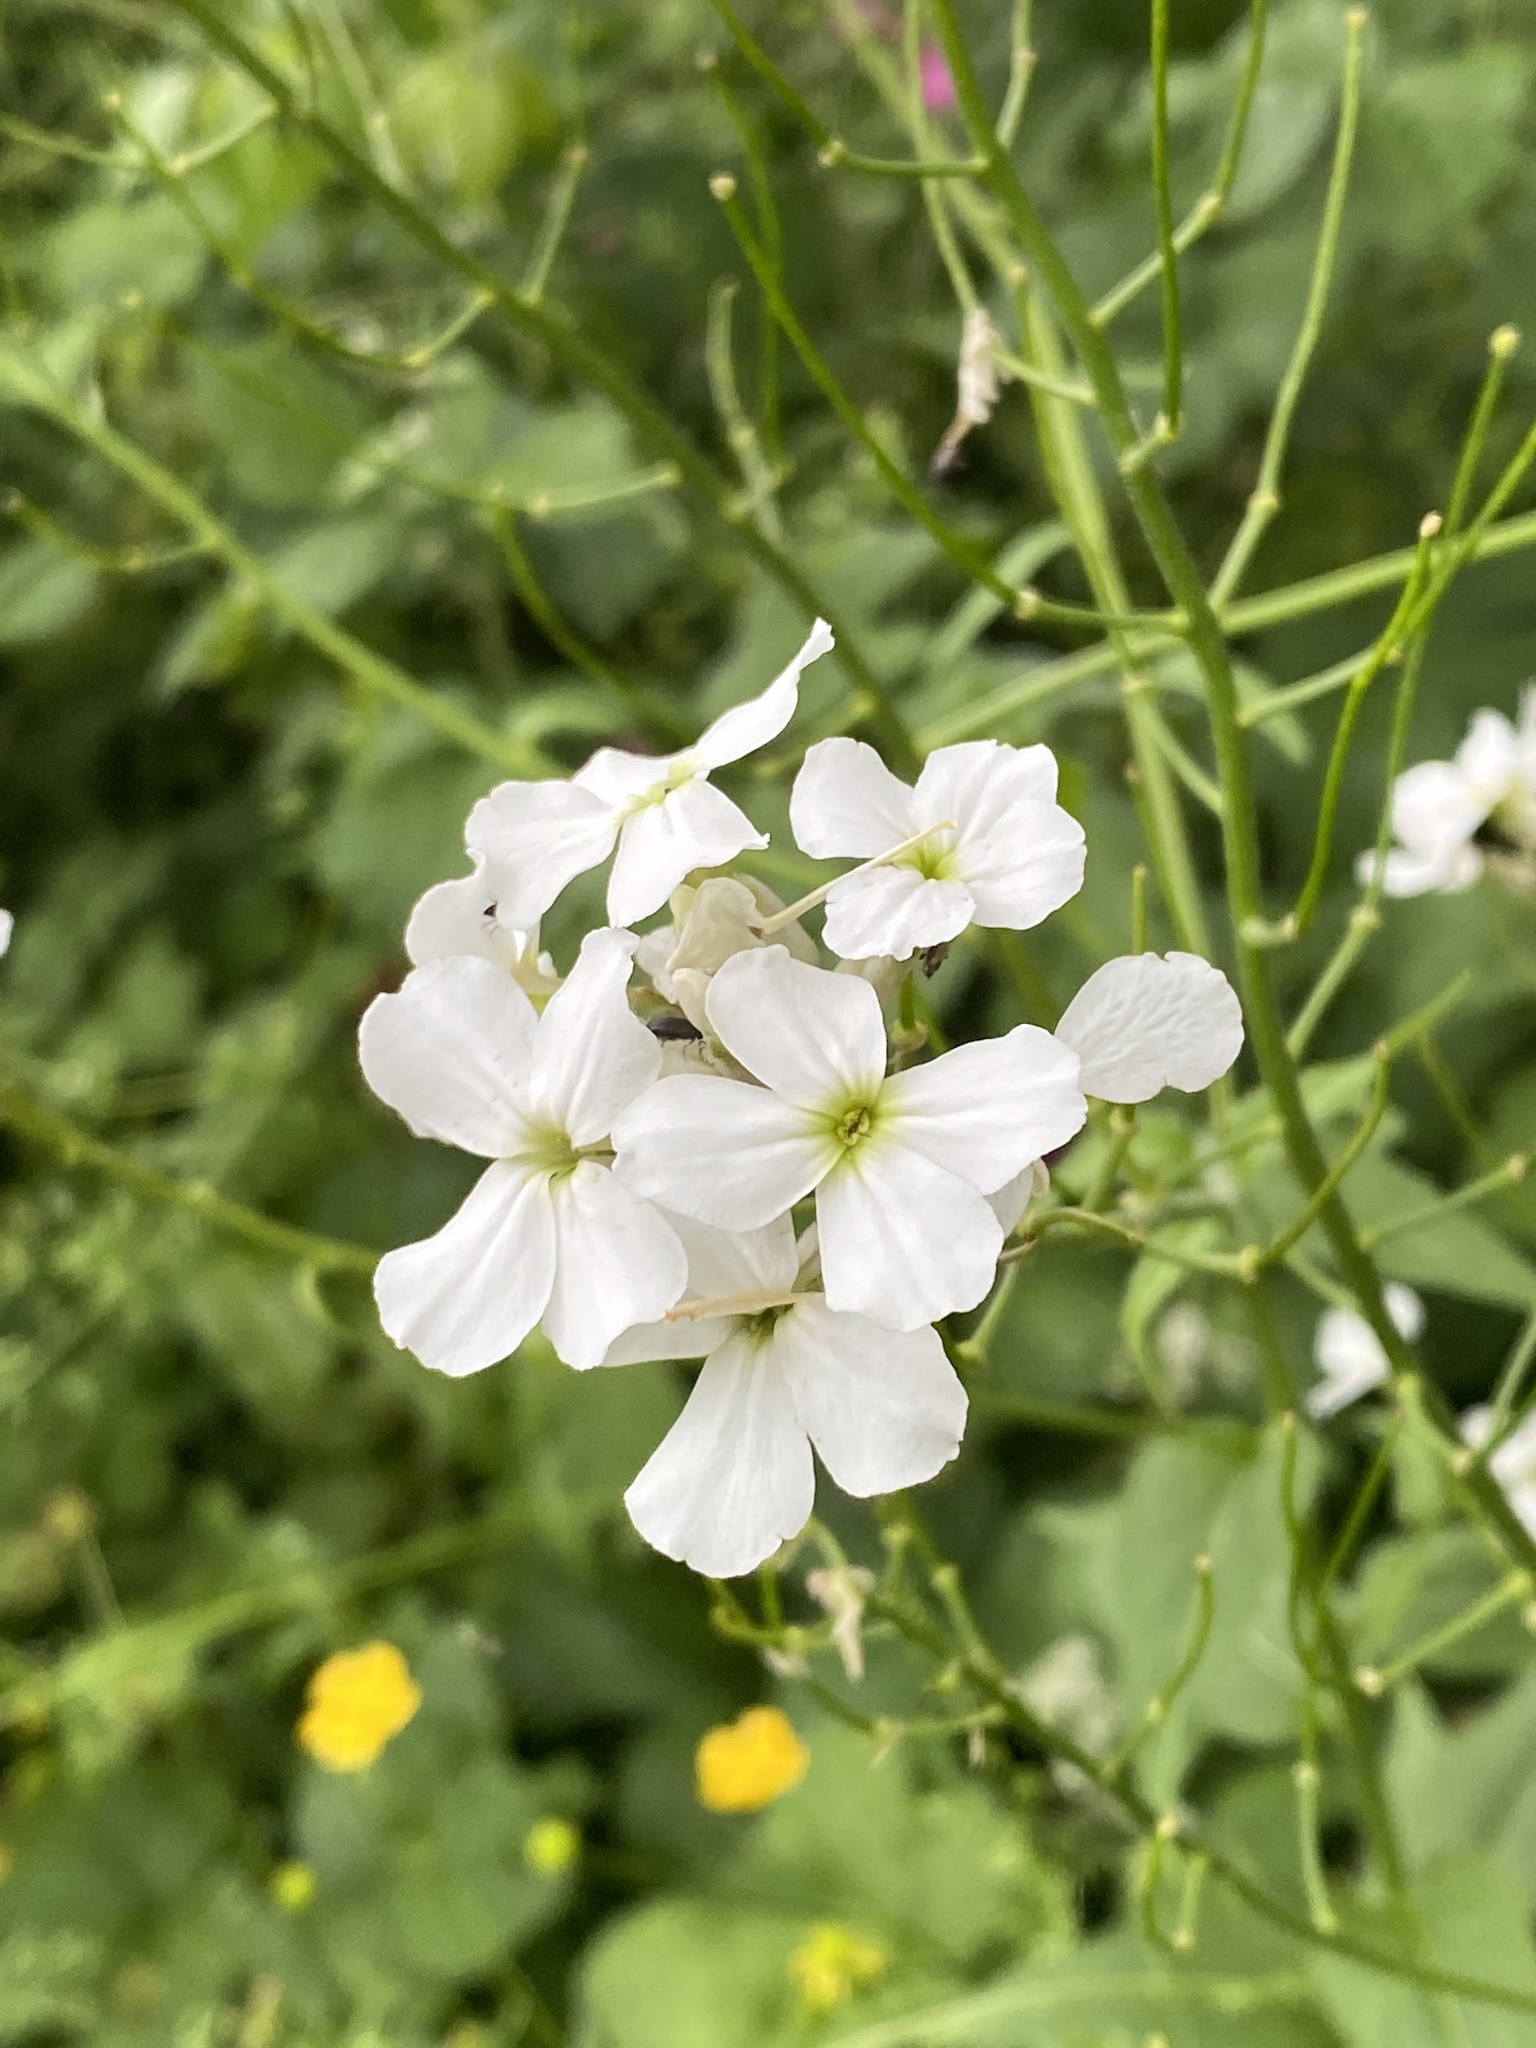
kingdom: Plantae
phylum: Tracheophyta
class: Magnoliopsida
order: Brassicales
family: Brassicaceae
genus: Hesperis
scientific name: Hesperis matronalis
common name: Dame's-violet
